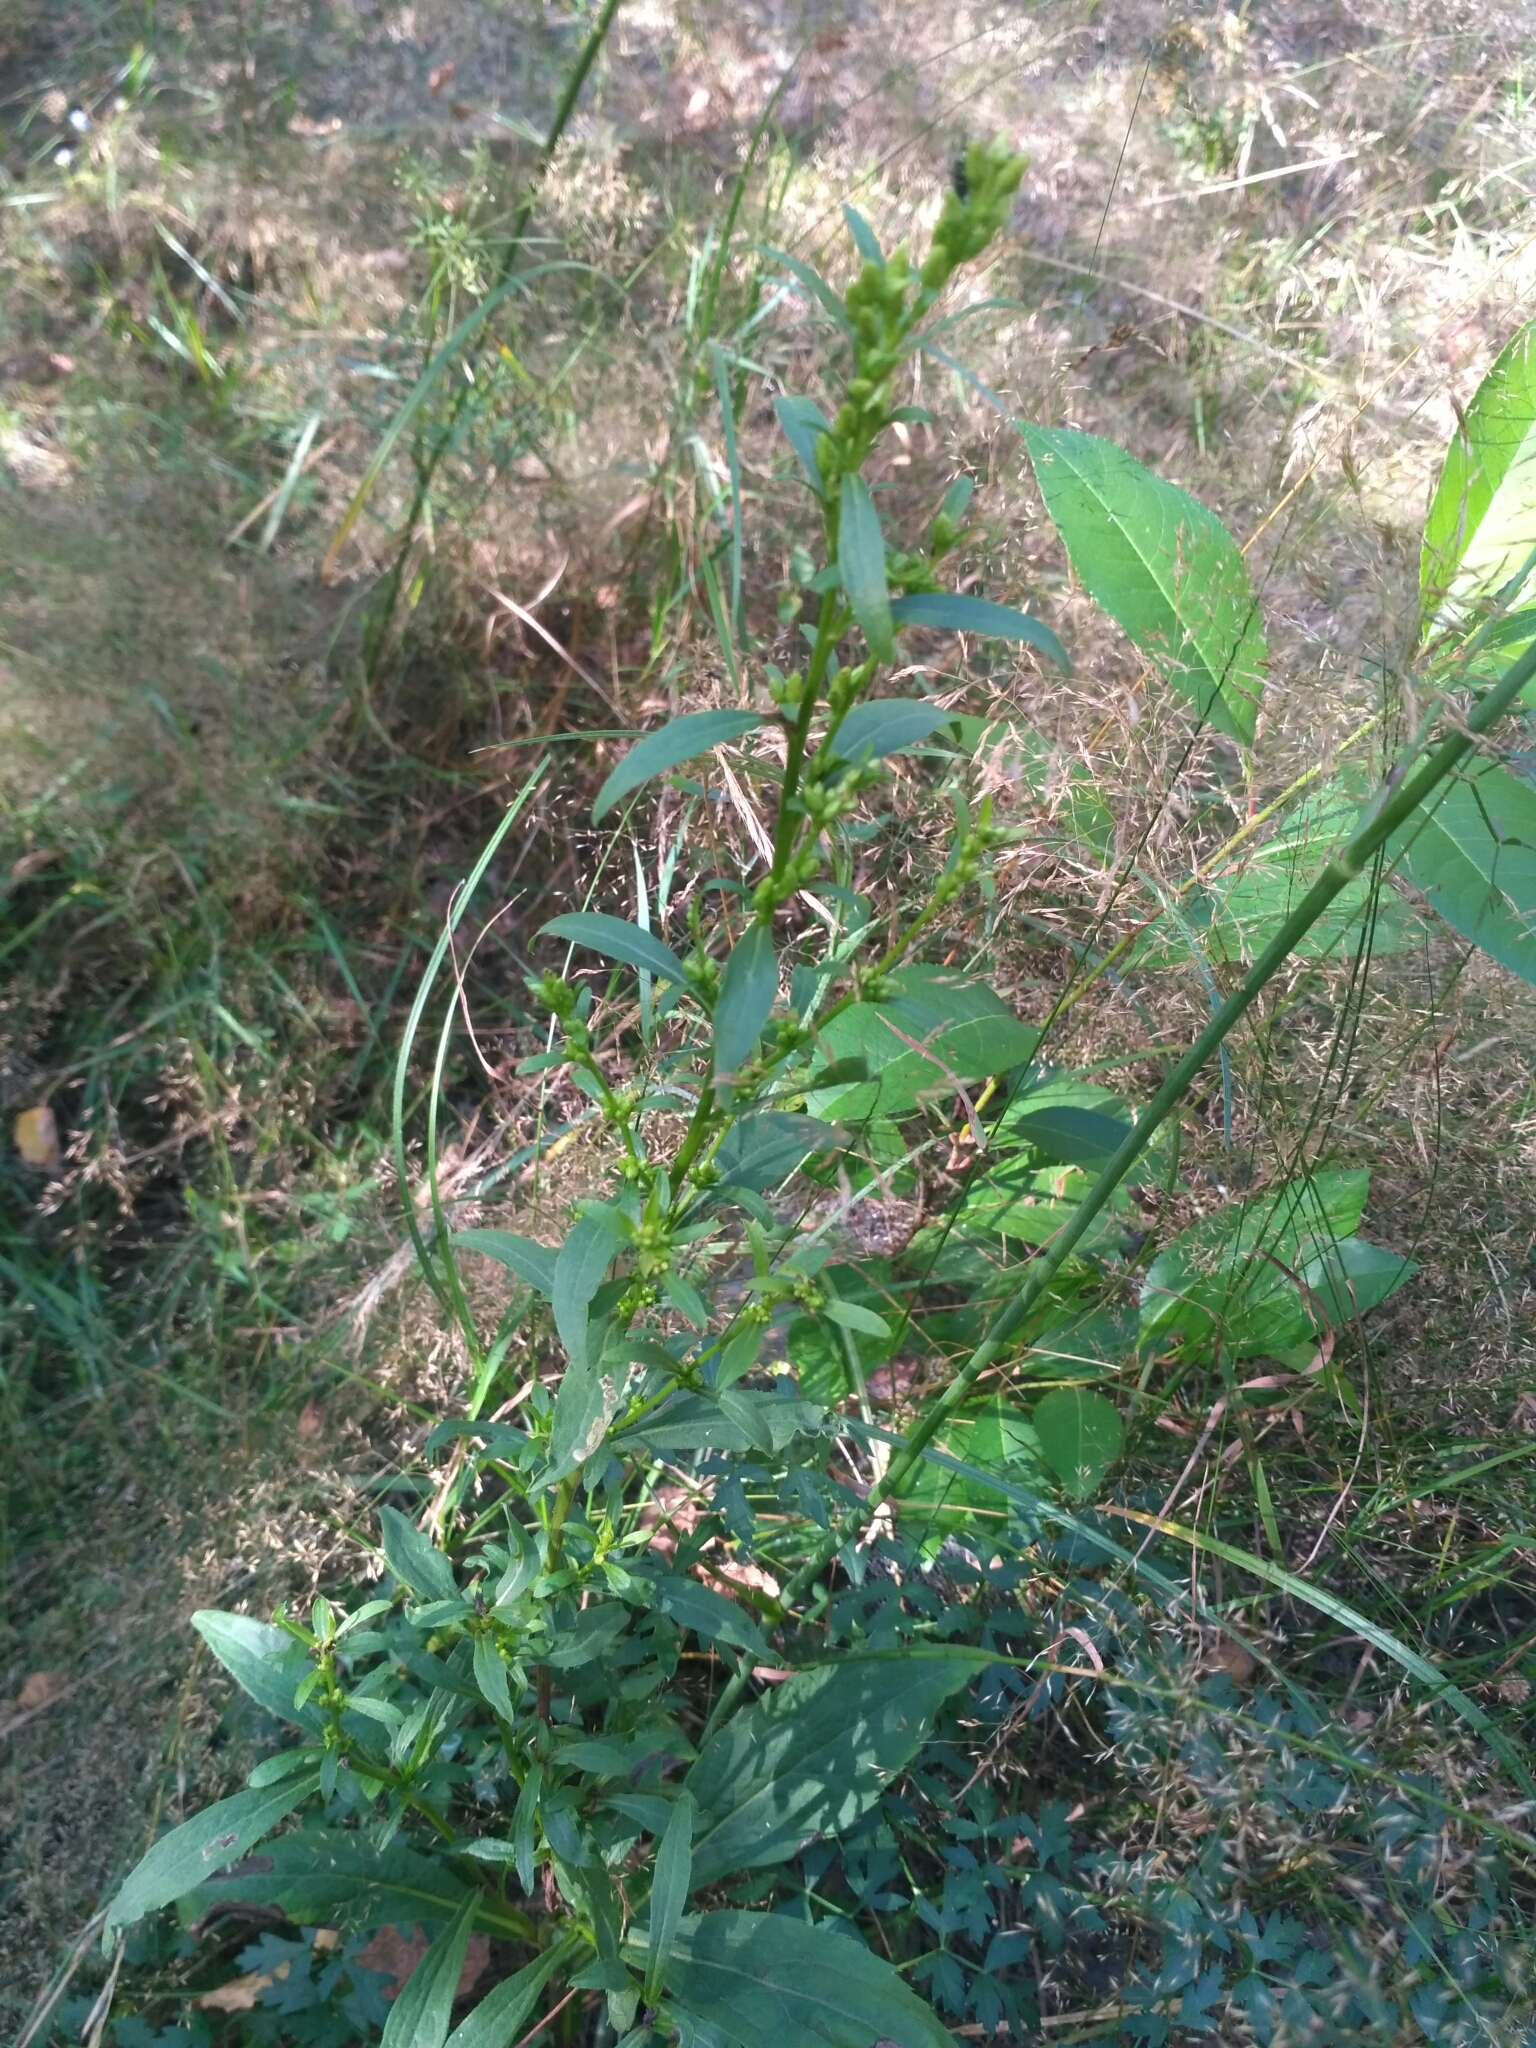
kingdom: Plantae
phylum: Tracheophyta
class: Magnoliopsida
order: Asterales
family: Asteraceae
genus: Solidago
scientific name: Solidago virgaurea
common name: Goldenrod
